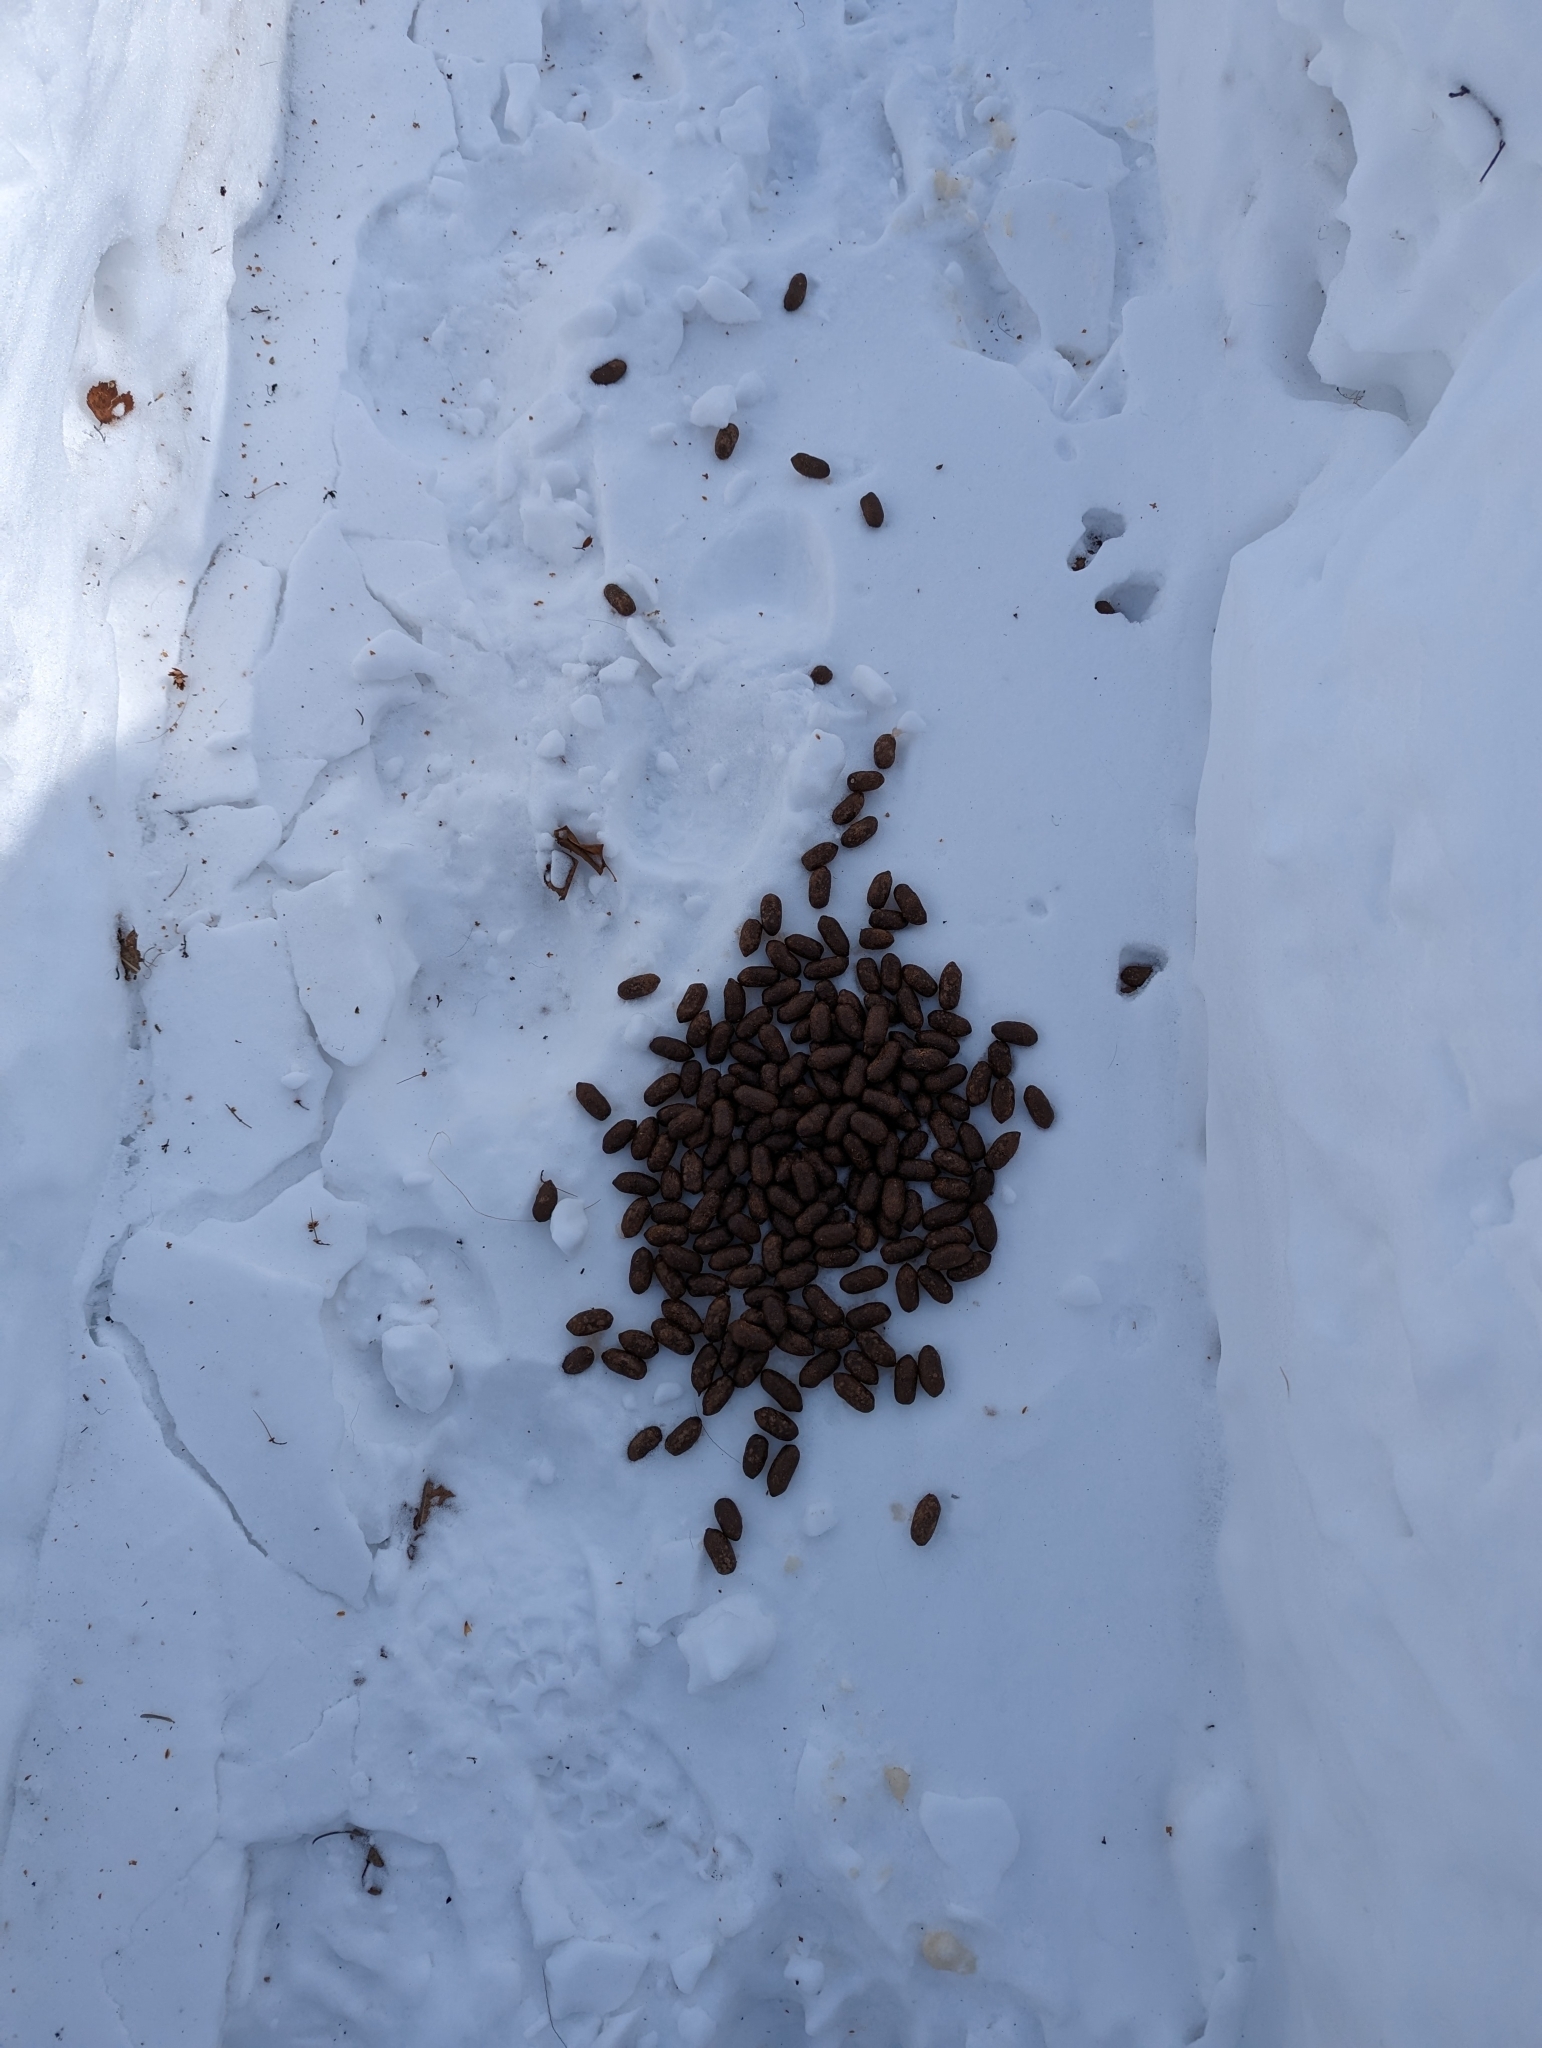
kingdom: Animalia
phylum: Chordata
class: Mammalia
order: Artiodactyla
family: Cervidae
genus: Alces
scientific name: Alces alces
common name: Moose
